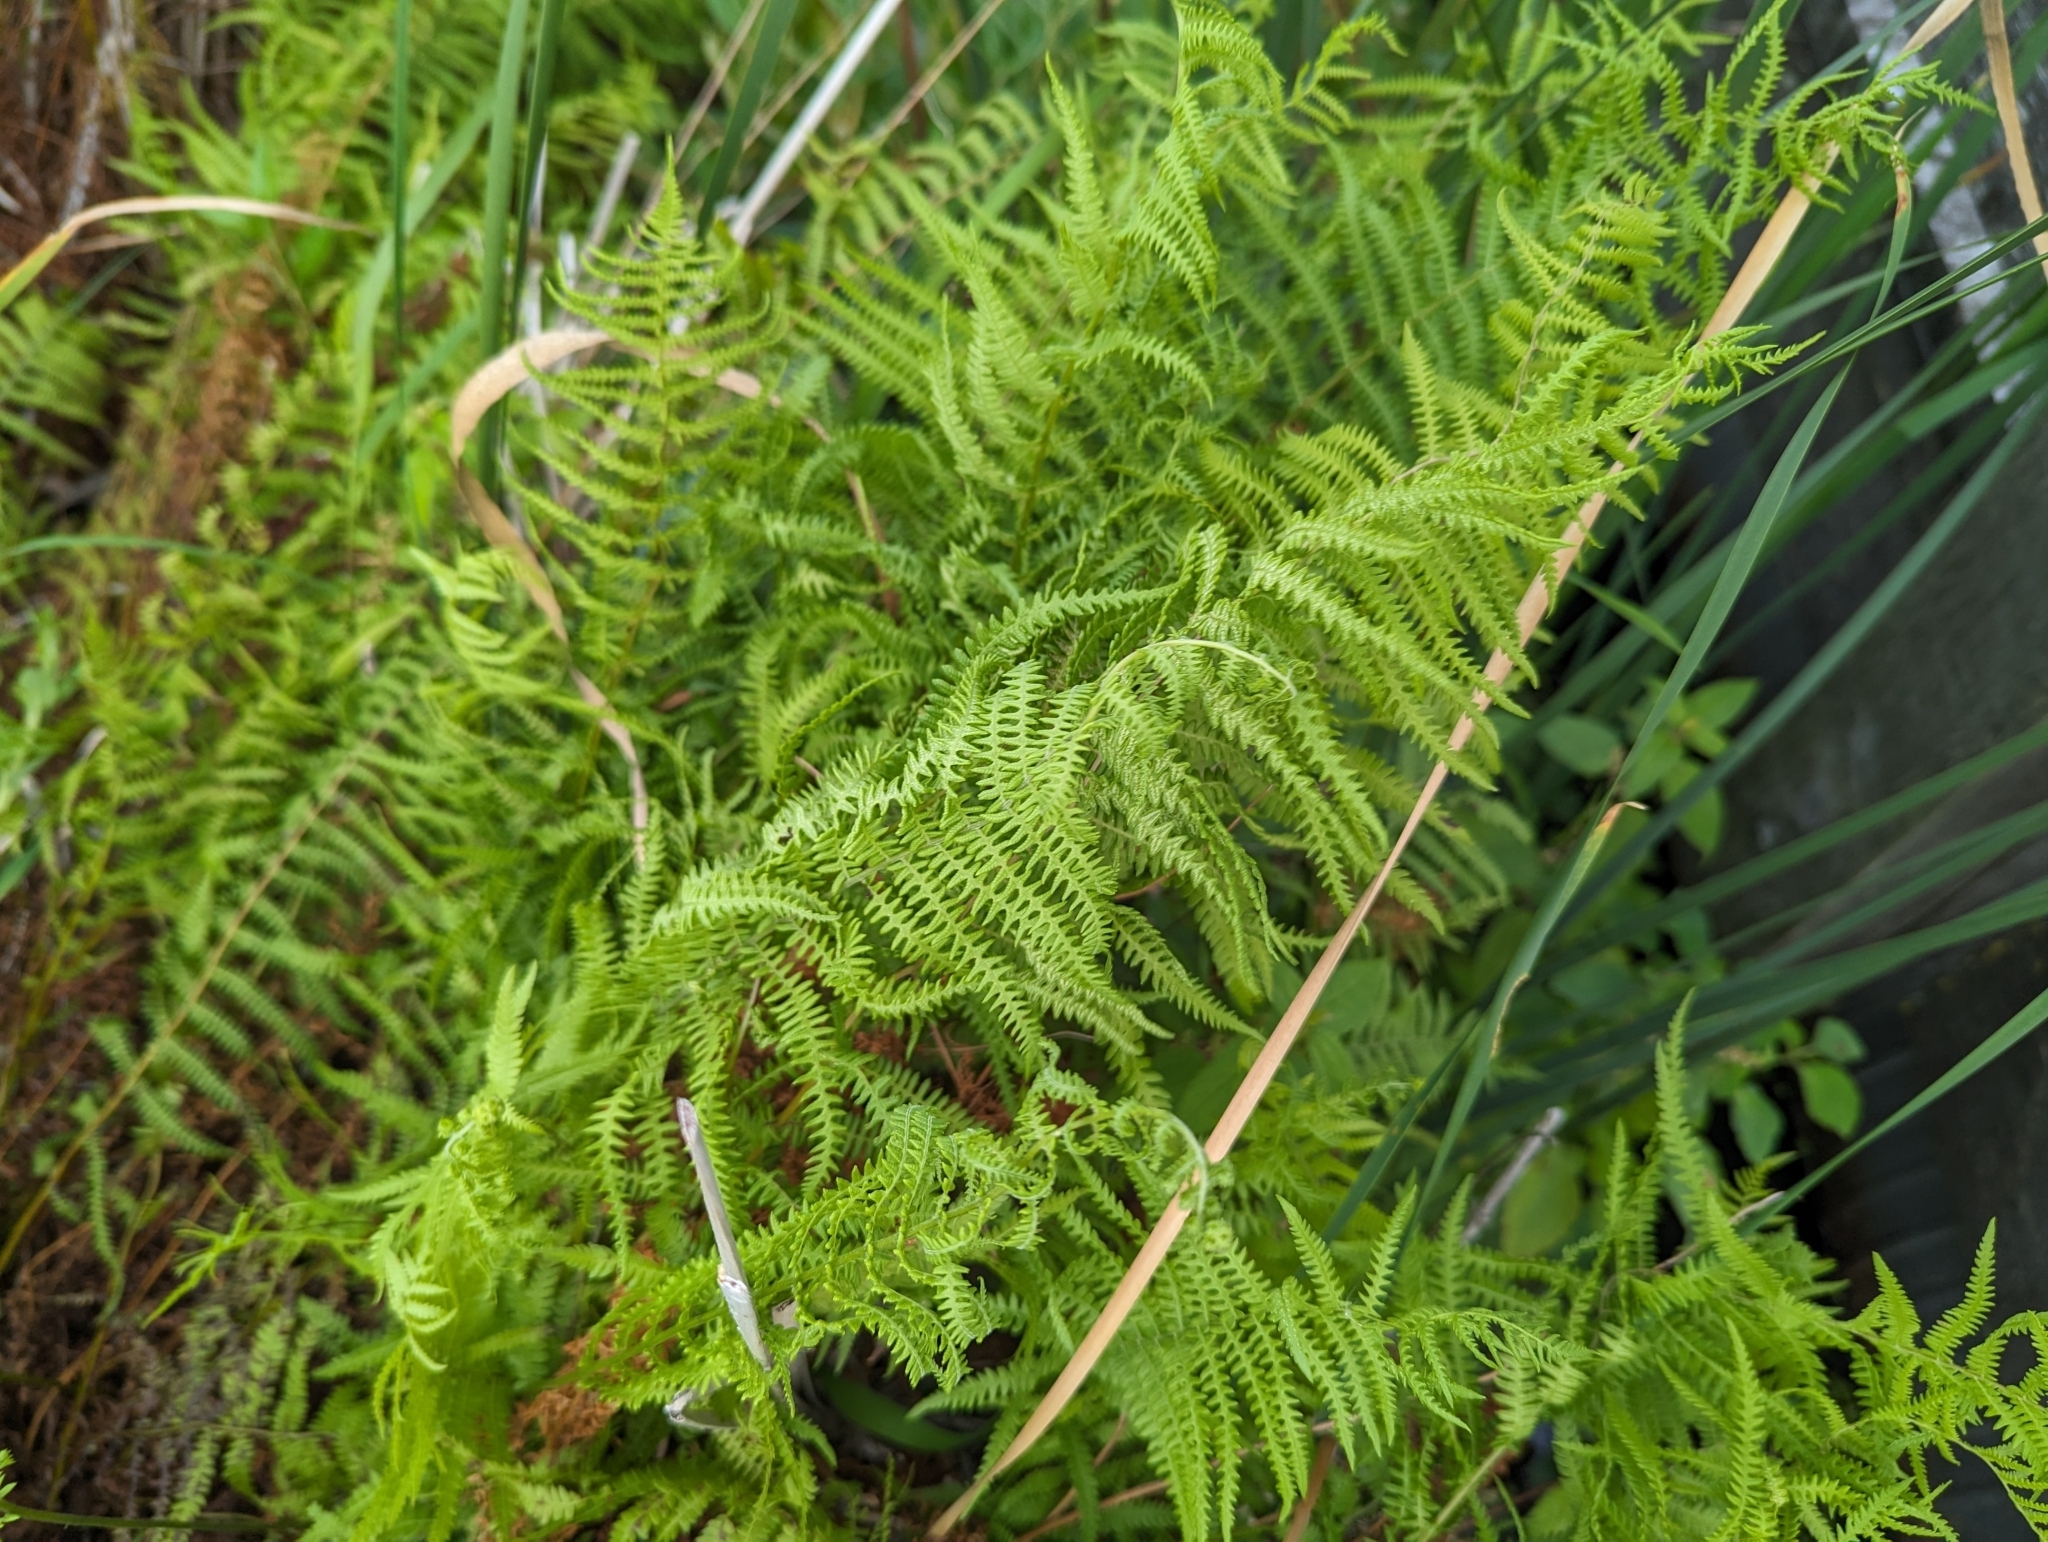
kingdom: Plantae
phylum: Tracheophyta
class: Polypodiopsida
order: Polypodiales
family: Thelypteridaceae
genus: Thelypteris
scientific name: Thelypteris palustris
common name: Marsh fern
